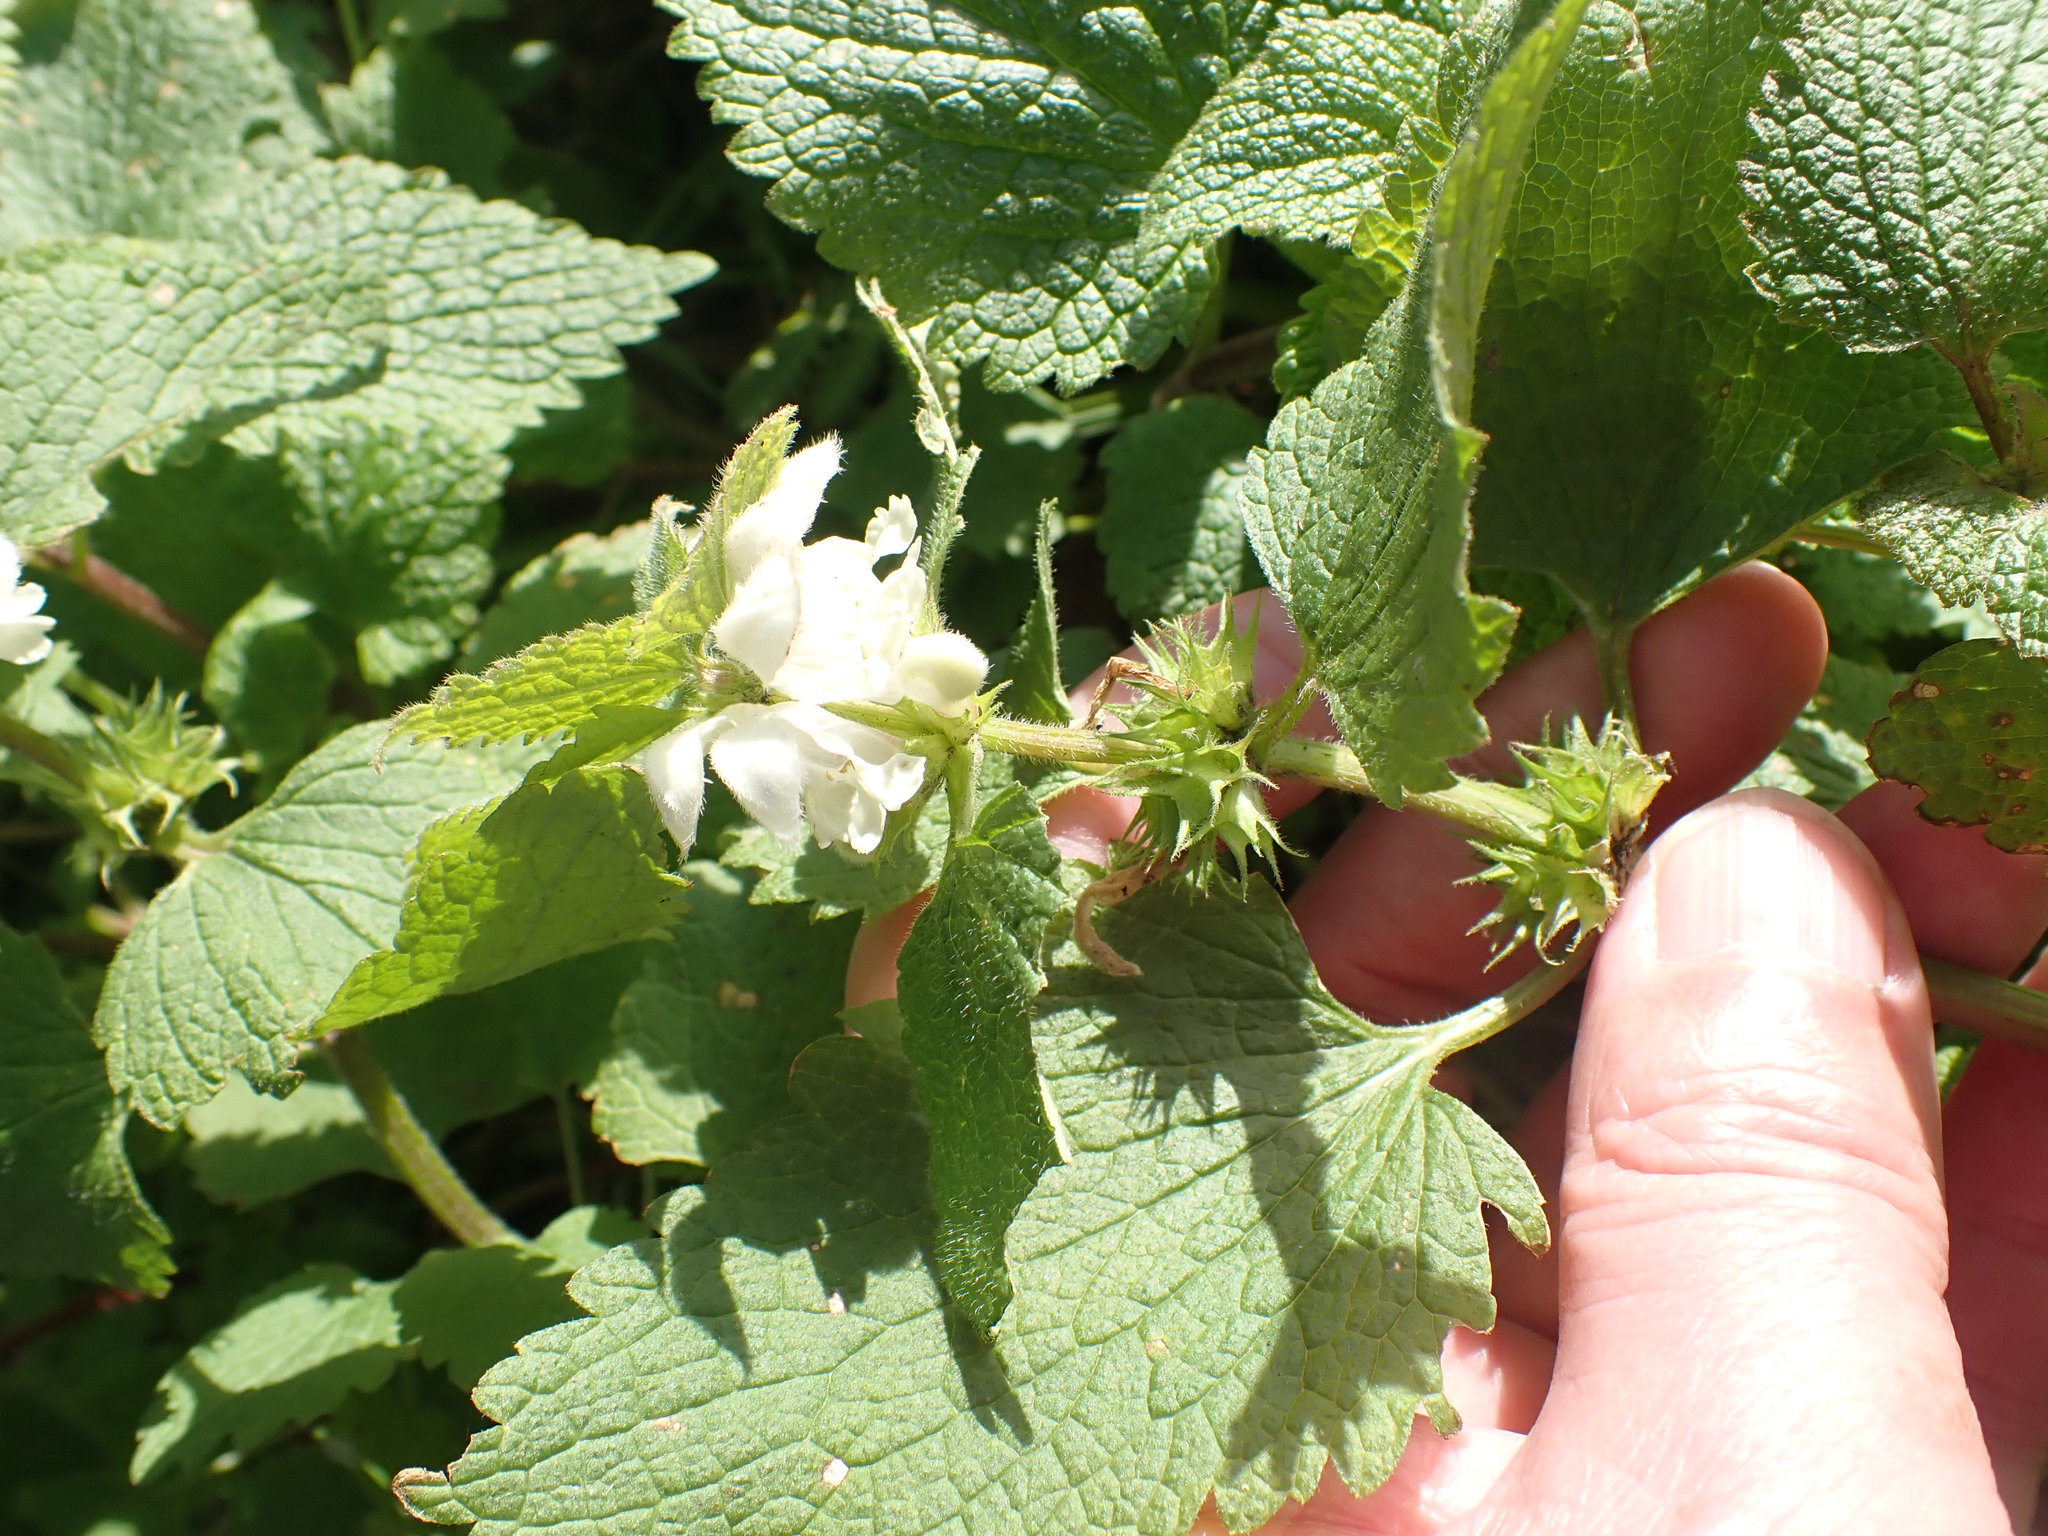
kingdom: Plantae
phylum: Tracheophyta
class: Magnoliopsida
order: Lamiales
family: Lamiaceae
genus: Lamium
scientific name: Lamium album
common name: White dead-nettle
